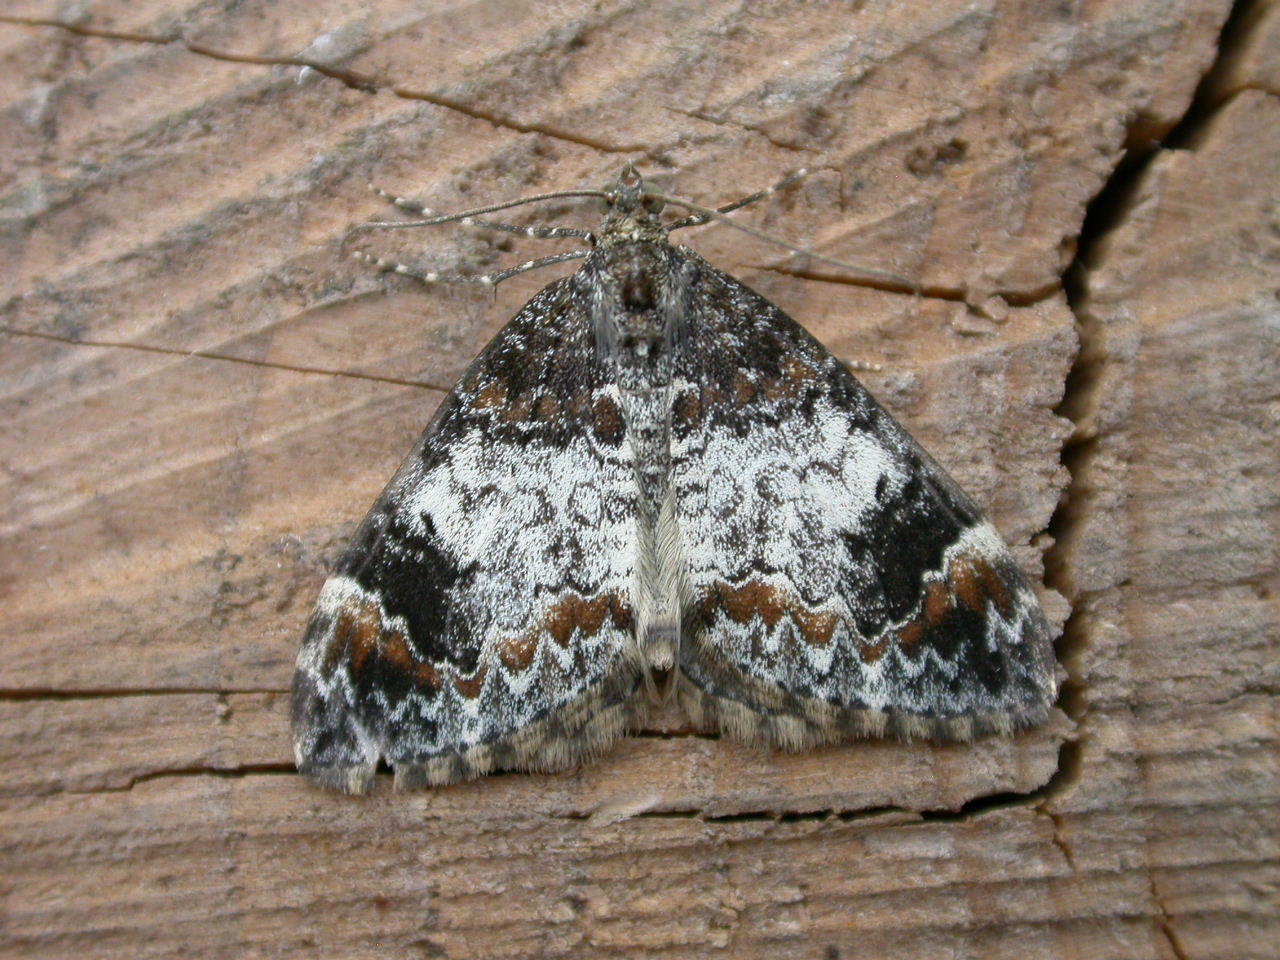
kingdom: Animalia
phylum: Arthropoda
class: Insecta
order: Lepidoptera
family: Geometridae
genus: Dysstroma
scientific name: Dysstroma truncata
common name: Common marbled carpet
